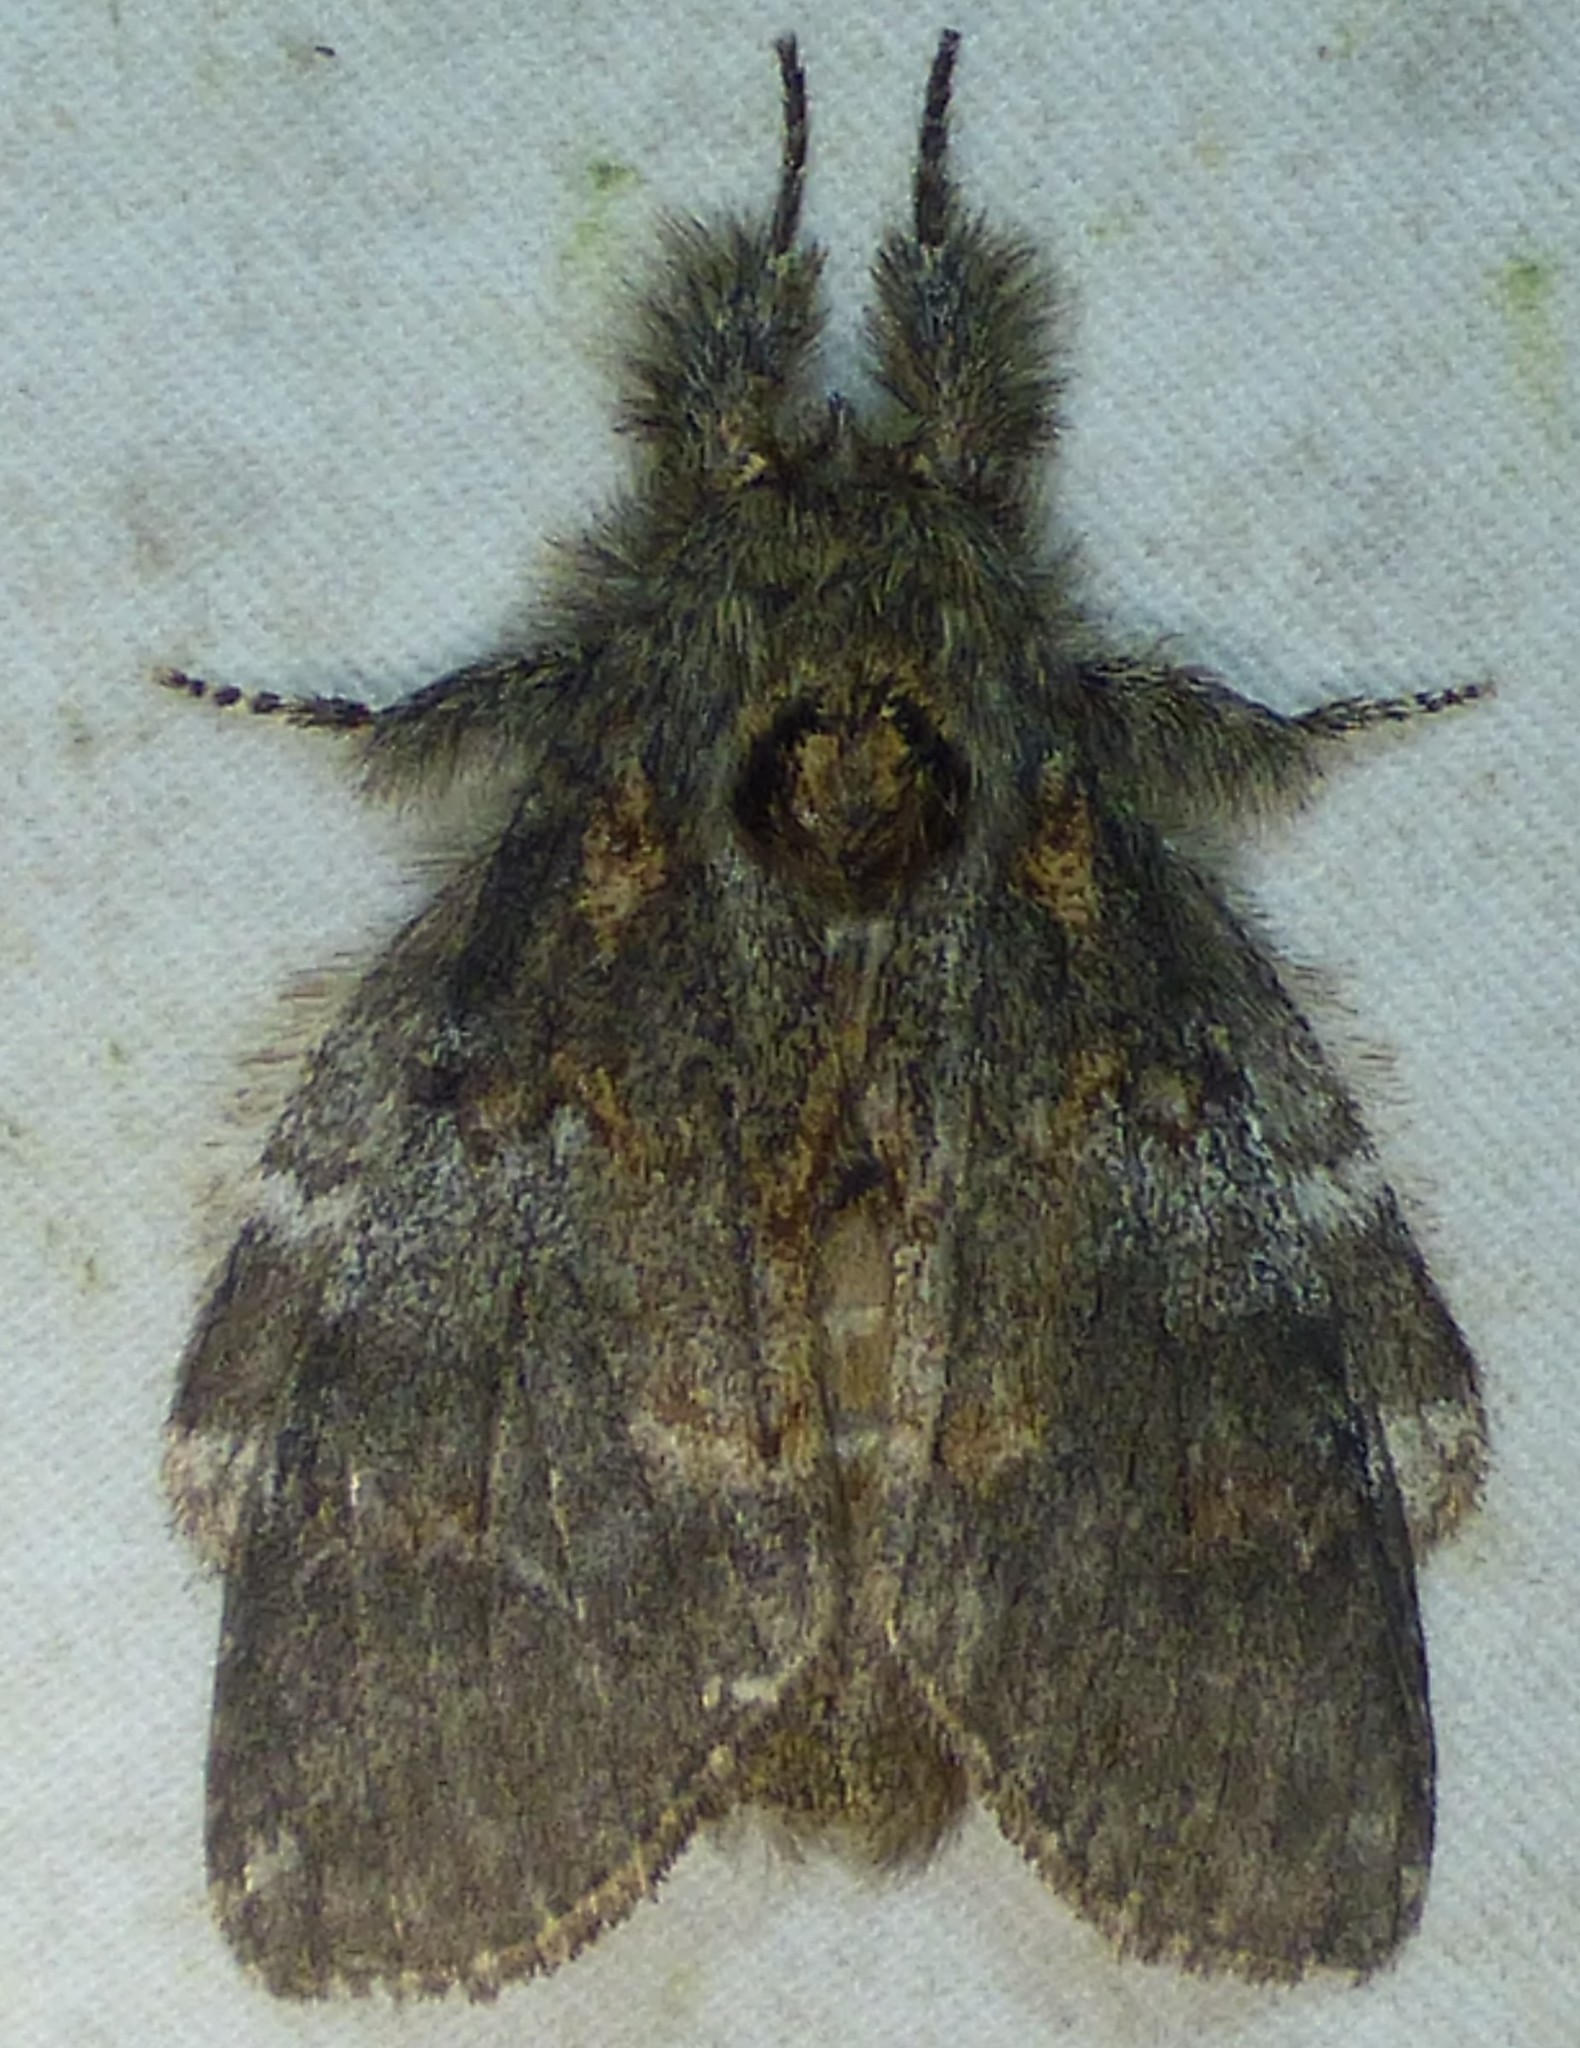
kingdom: Animalia
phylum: Arthropoda
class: Insecta
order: Lepidoptera
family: Notodontidae
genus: Peridea
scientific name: Peridea angulosa
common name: Angulose prominent
